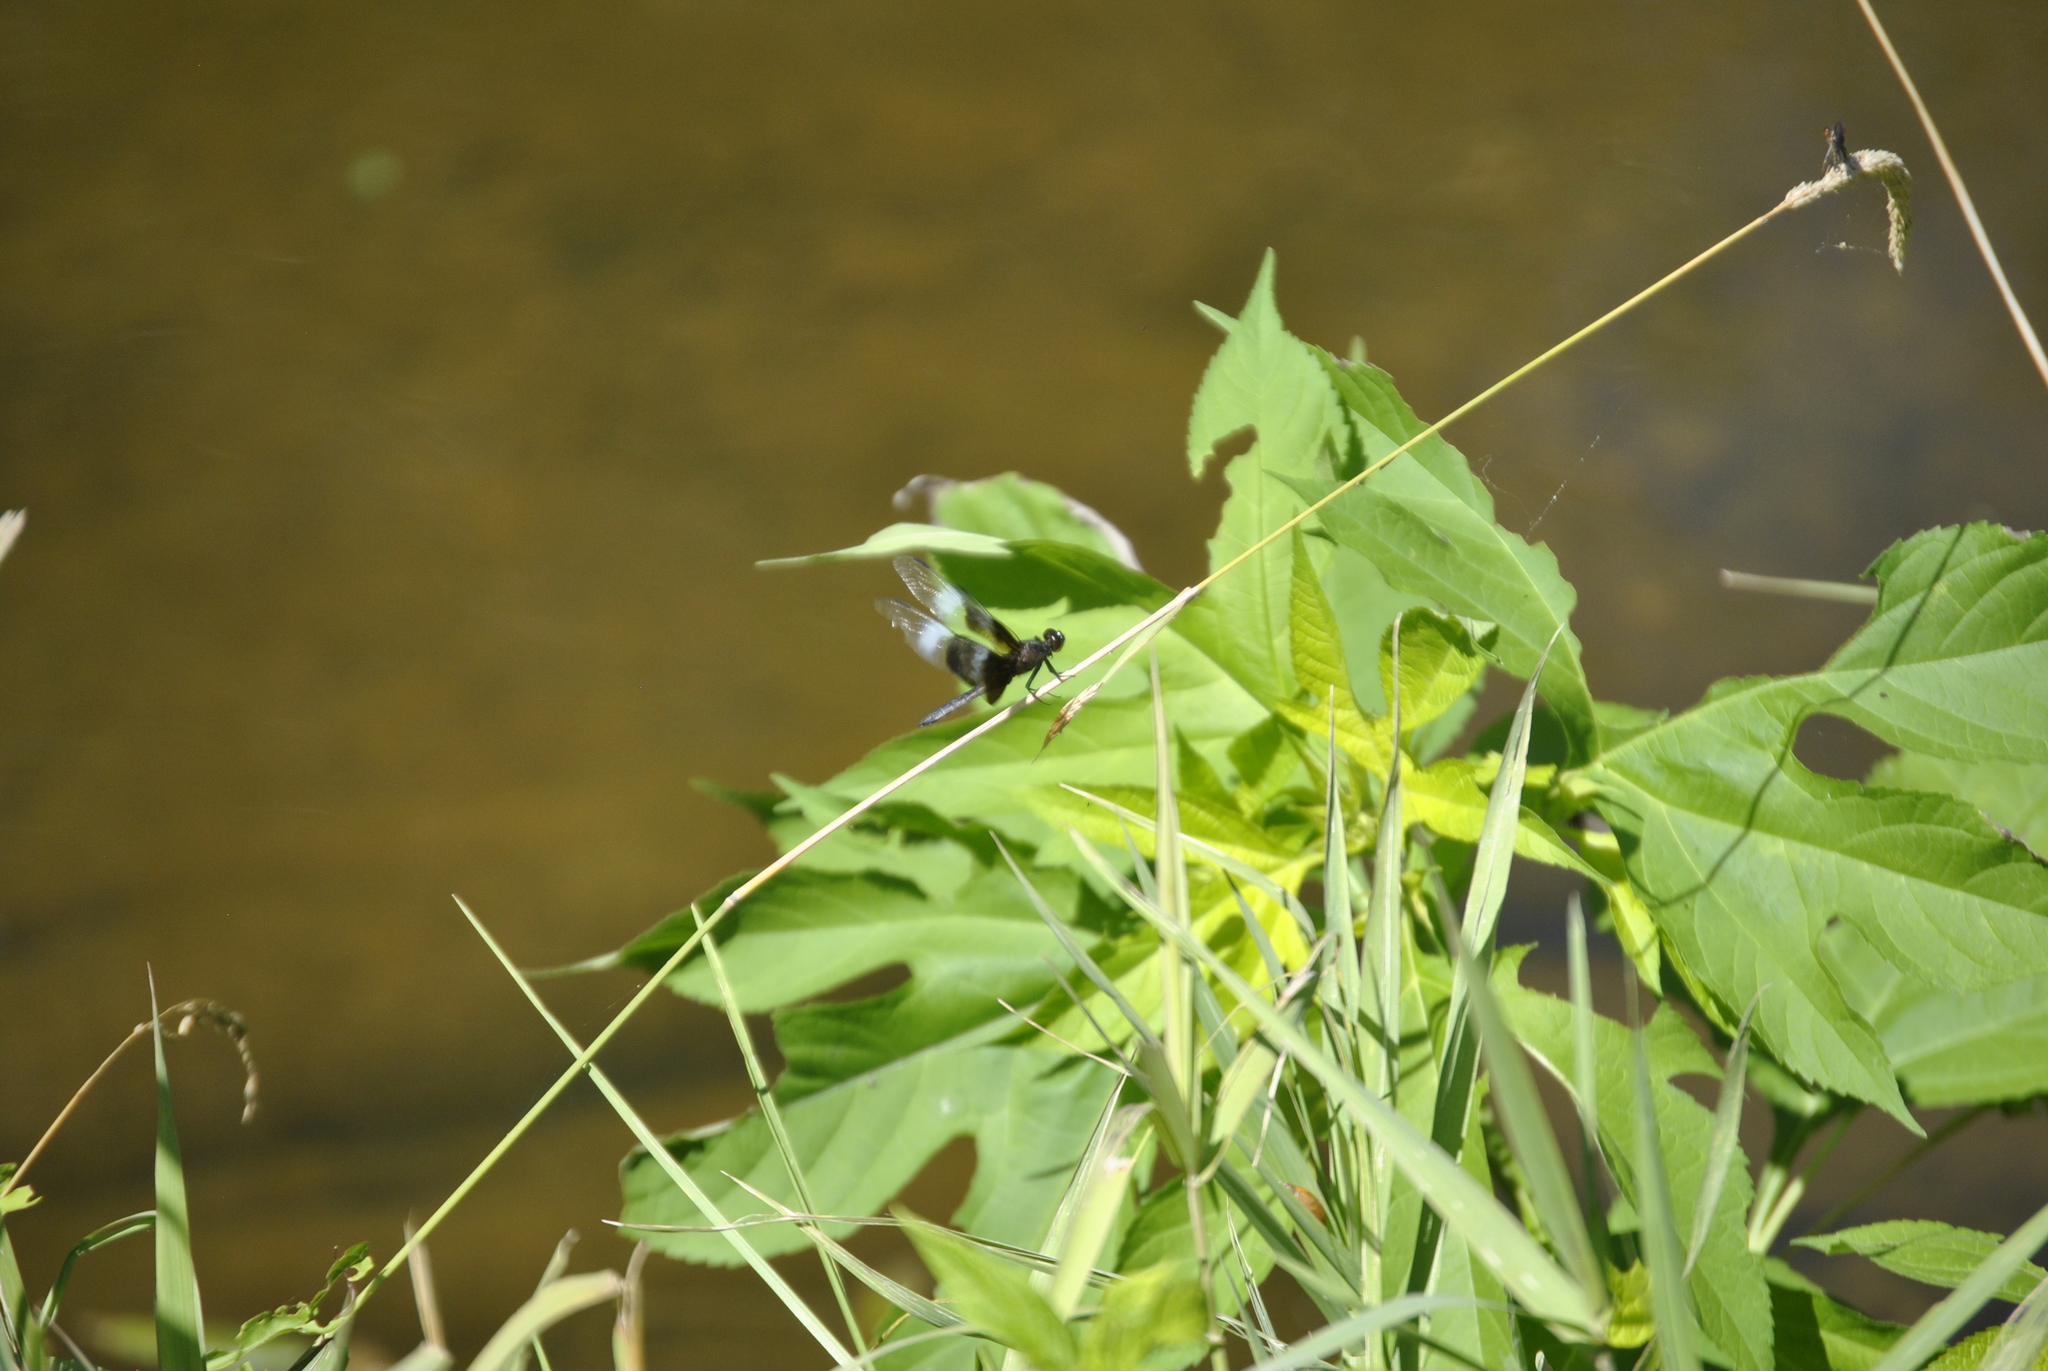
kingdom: Animalia
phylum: Arthropoda
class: Insecta
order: Odonata
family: Libellulidae
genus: Libellula
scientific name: Libellula luctuosa
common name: Widow skimmer
